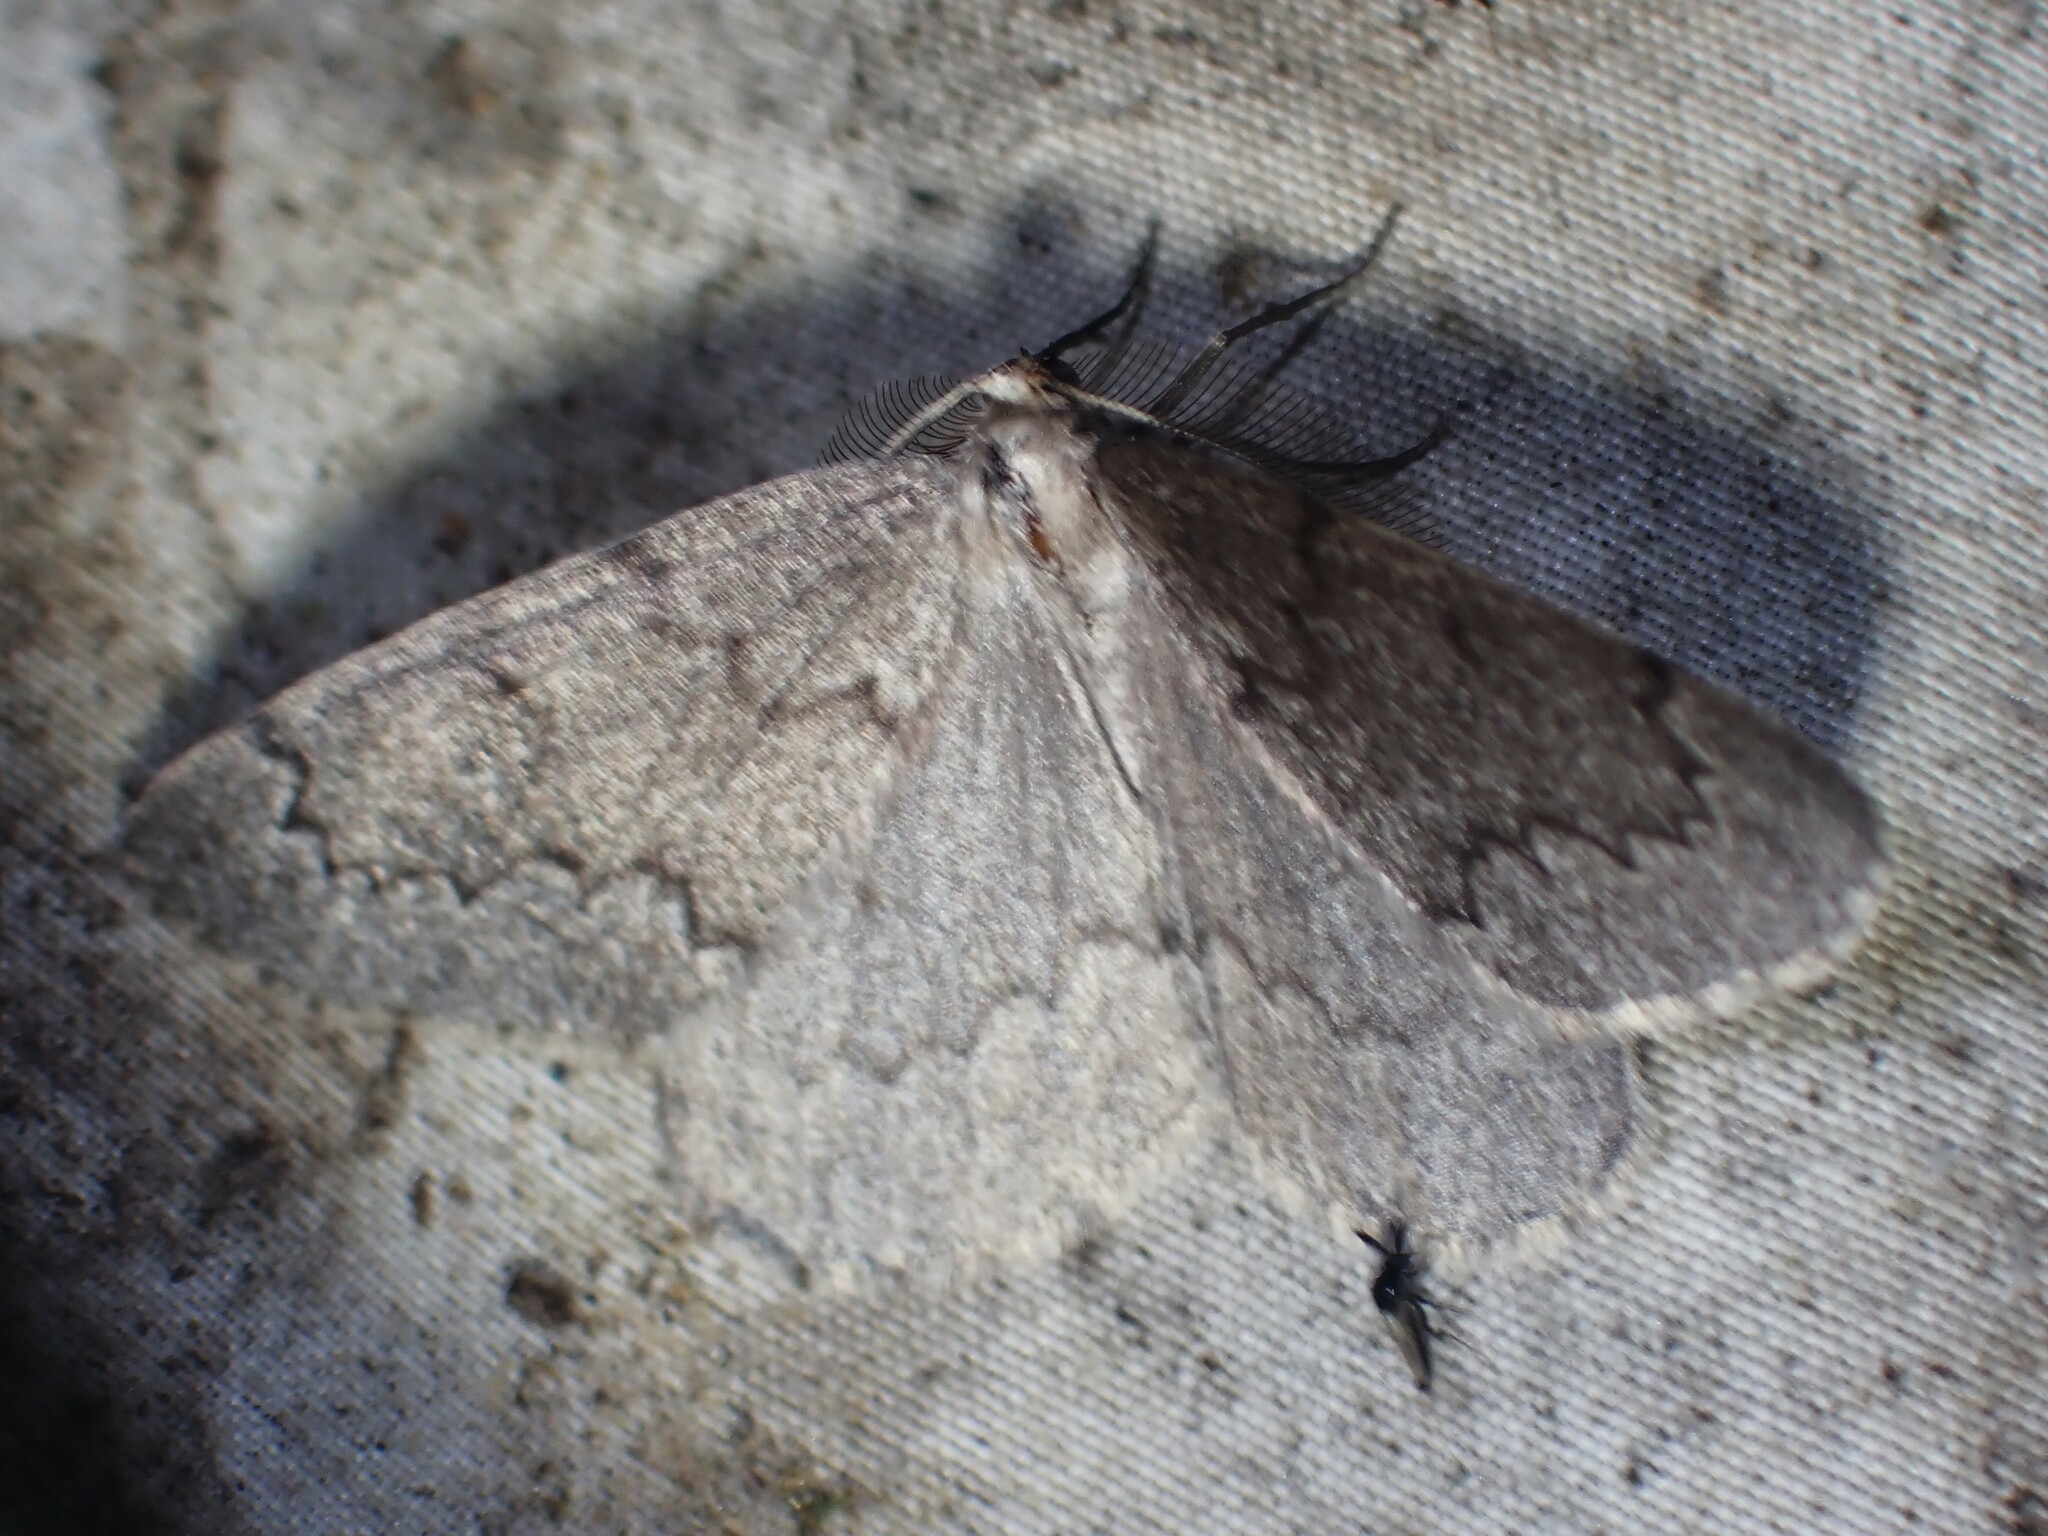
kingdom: Animalia
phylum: Arthropoda
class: Insecta
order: Lepidoptera
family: Geometridae
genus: Nepytia
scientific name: Nepytia pellucidaria
